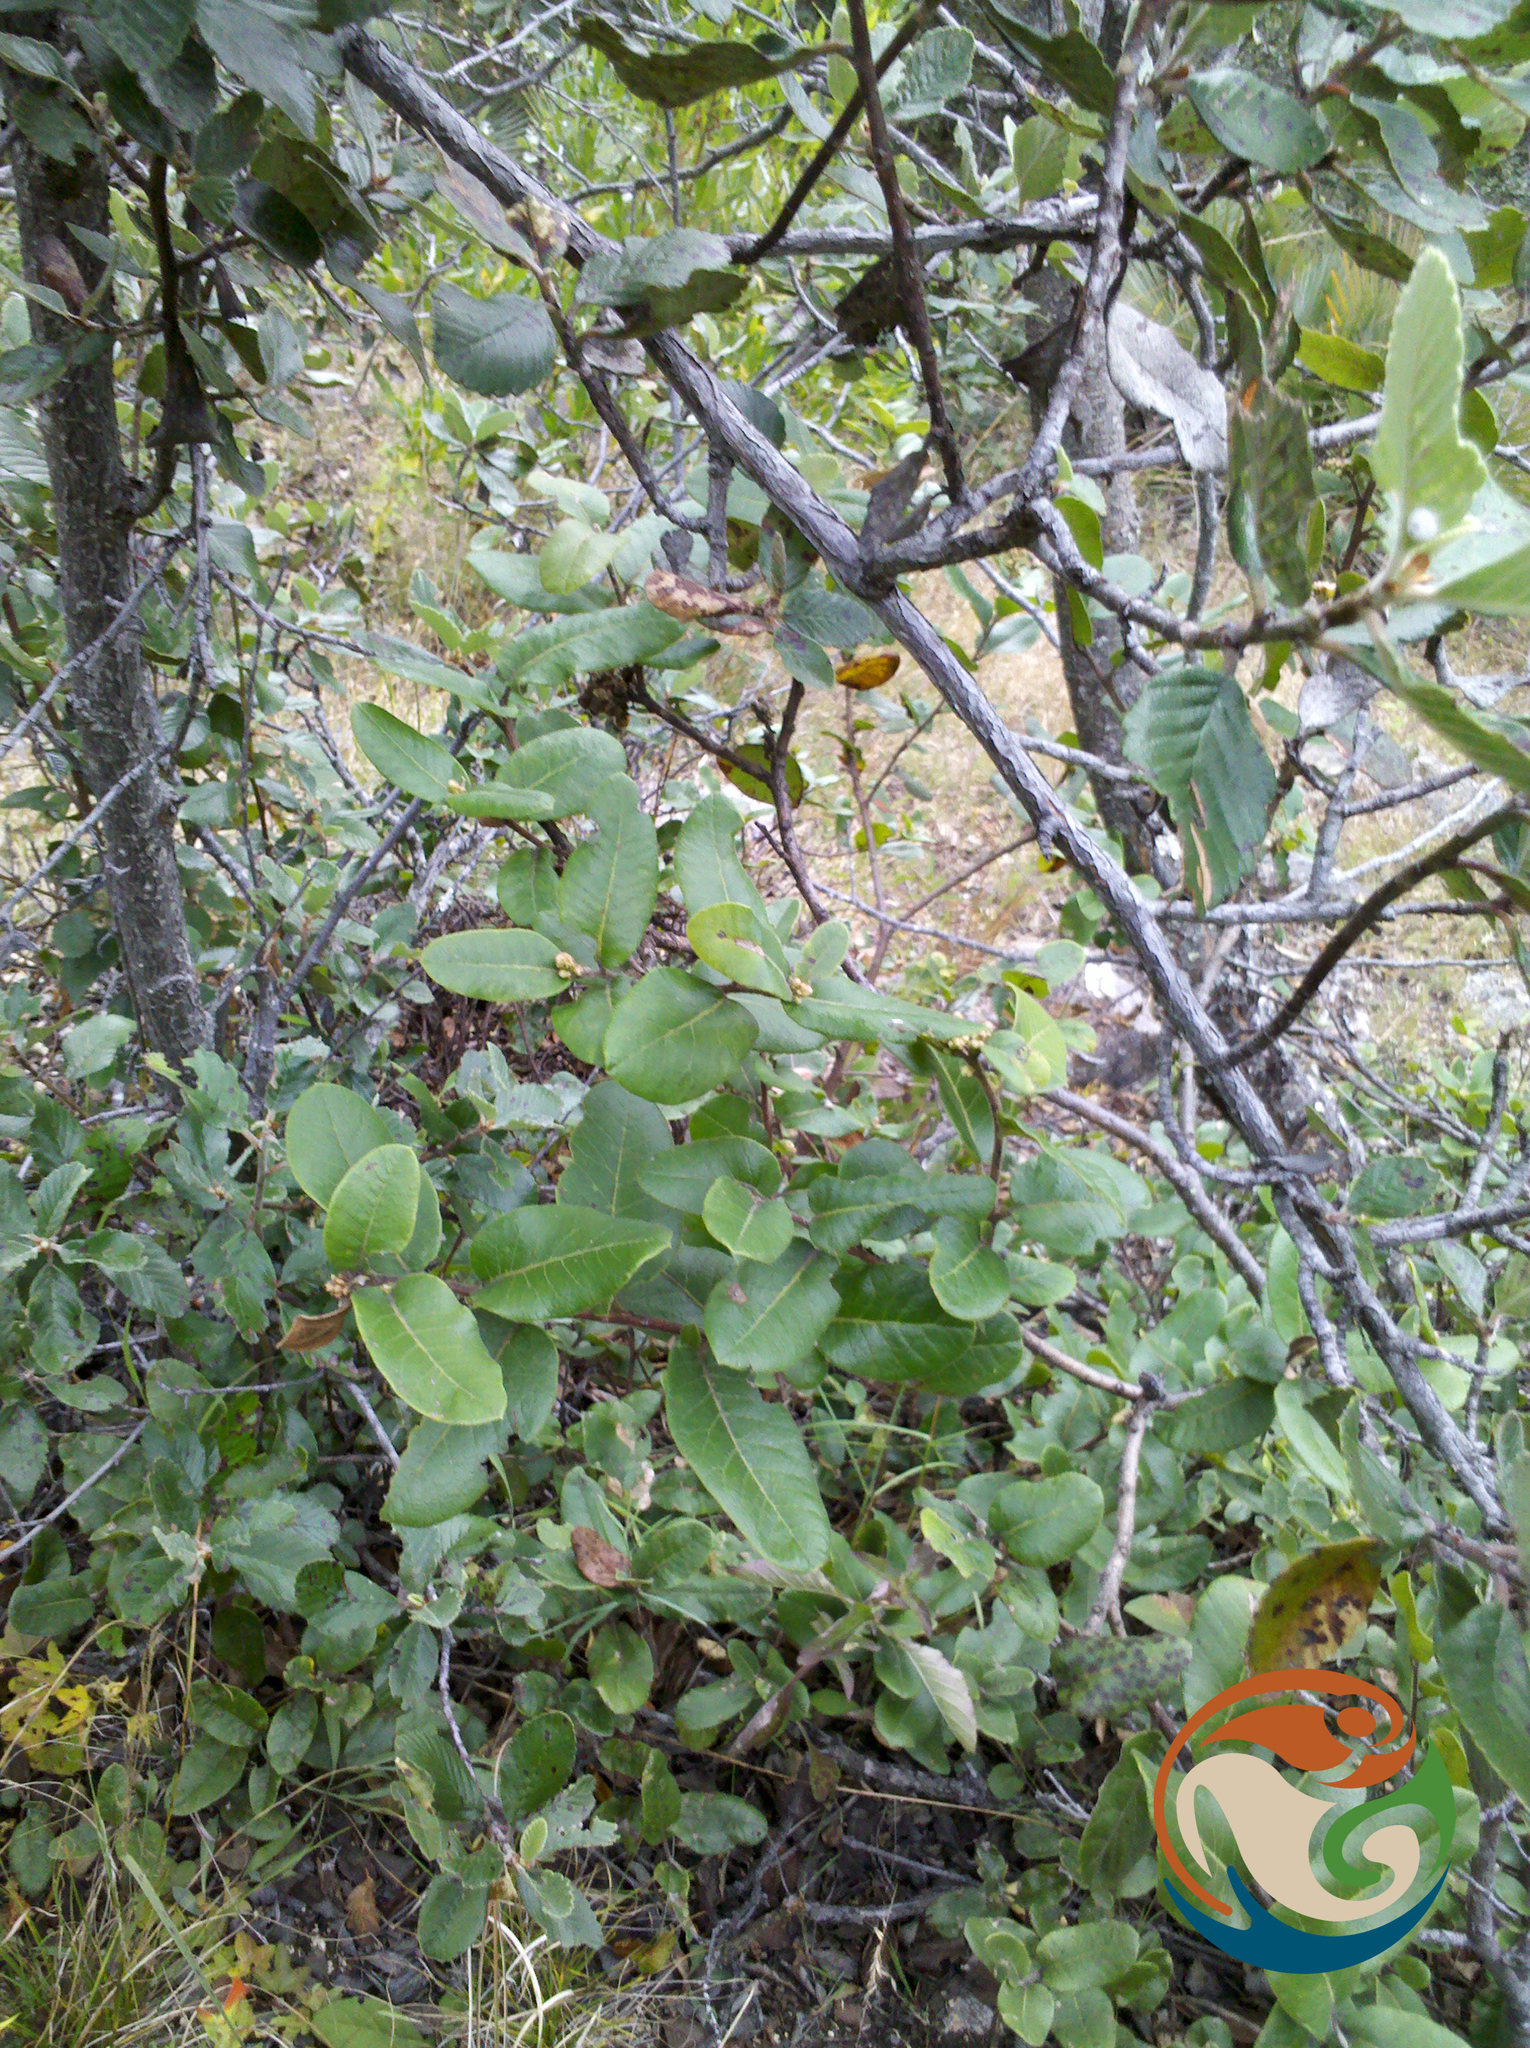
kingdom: Plantae
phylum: Tracheophyta
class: Magnoliopsida
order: Sapindales
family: Anacardiaceae
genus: Rhus
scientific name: Rhus standleyi
